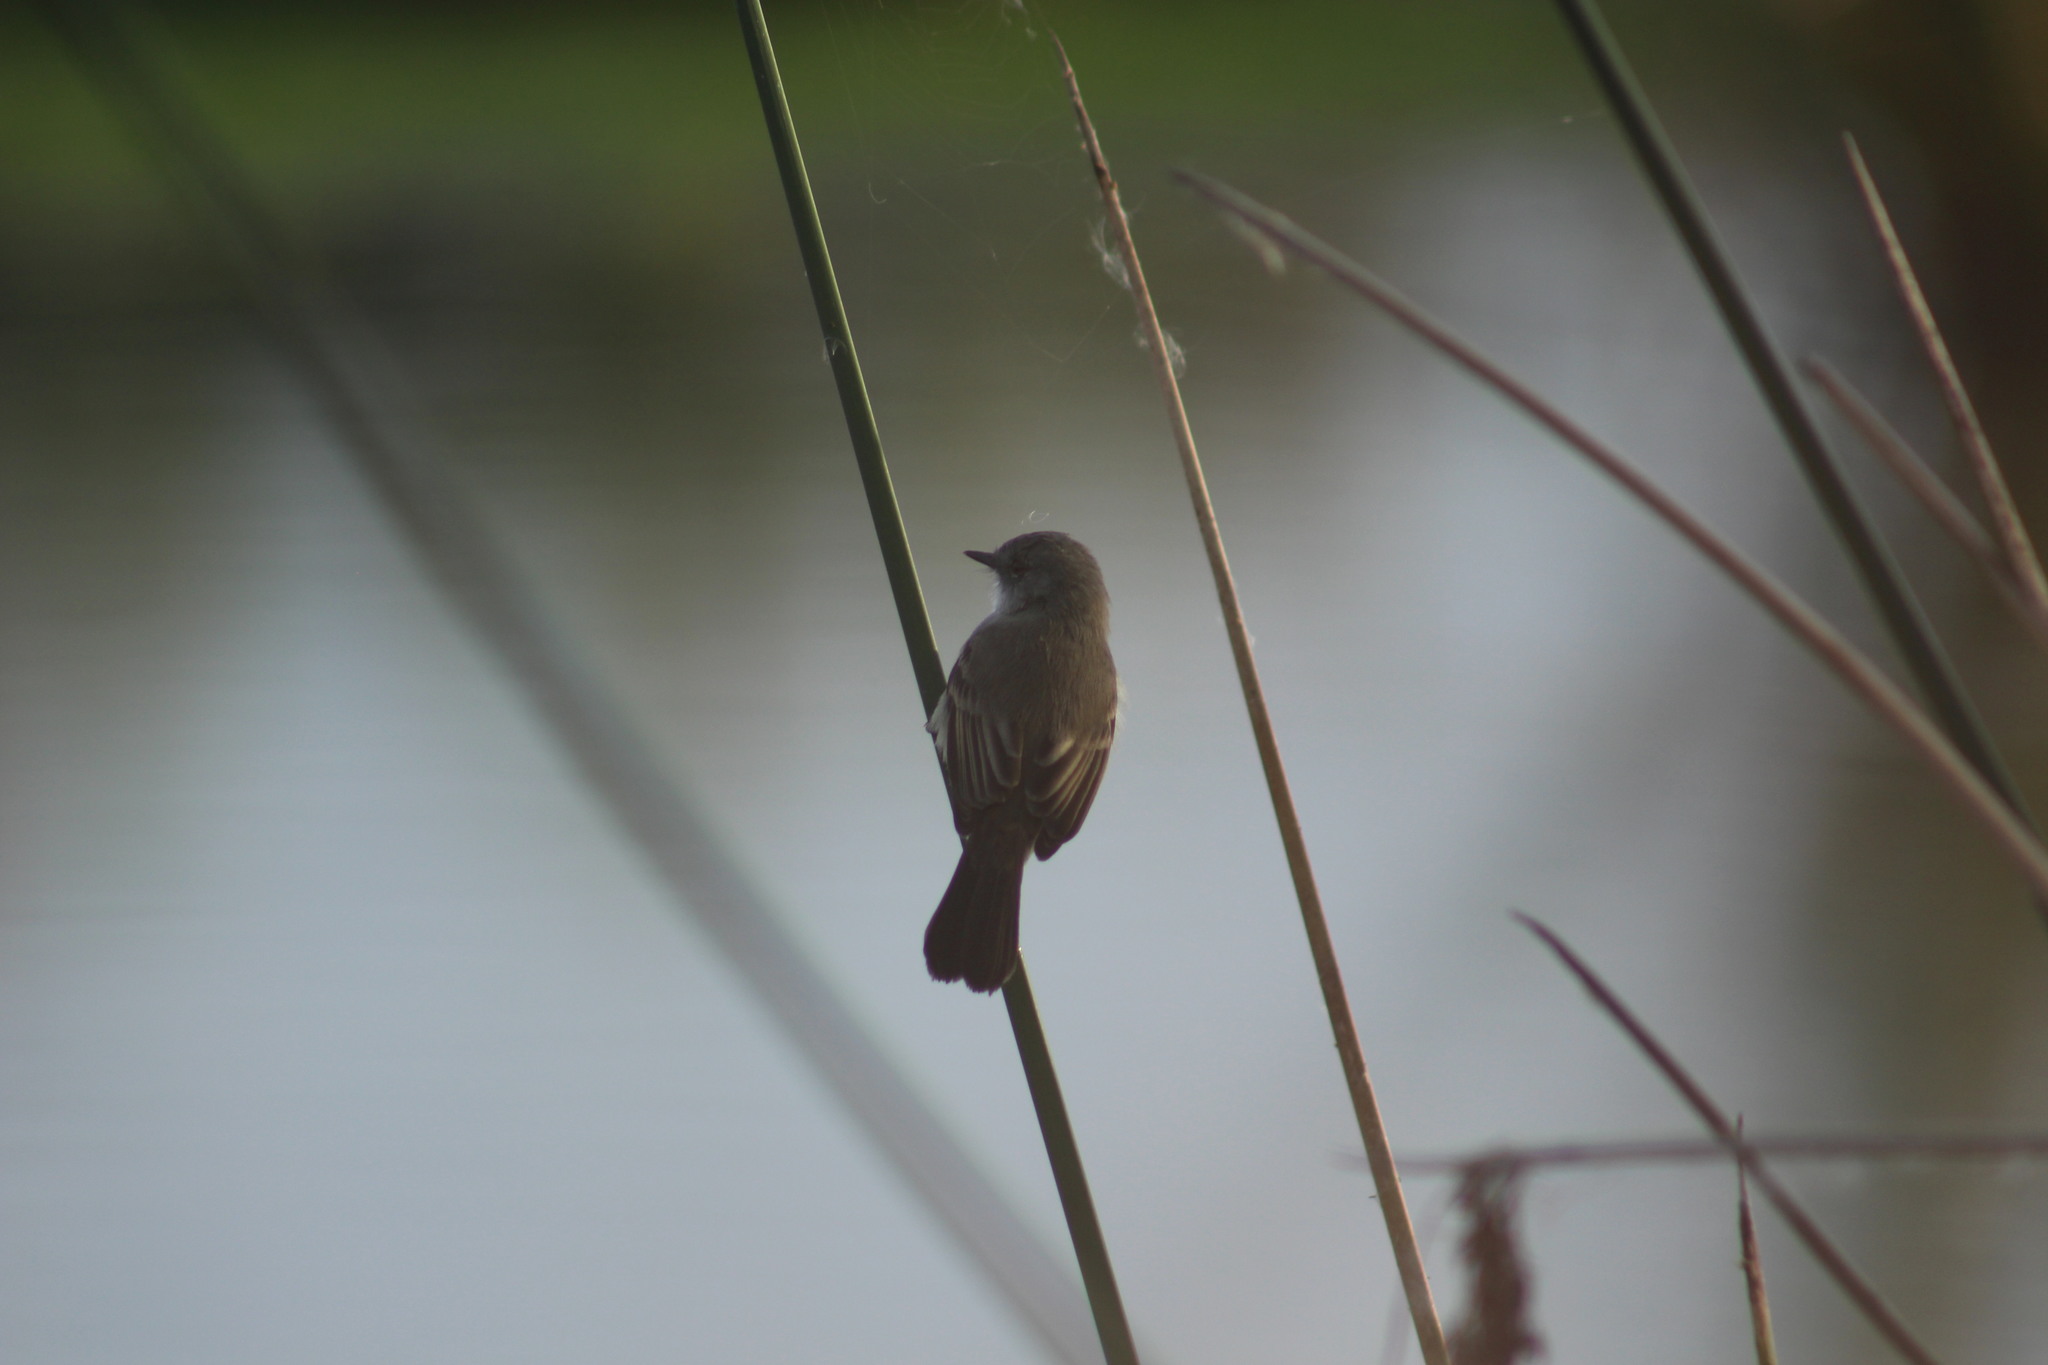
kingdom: Animalia
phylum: Chordata
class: Aves
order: Passeriformes
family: Tyrannidae
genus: Serpophaga
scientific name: Serpophaga nigricans
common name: Sooty tyrannulet
